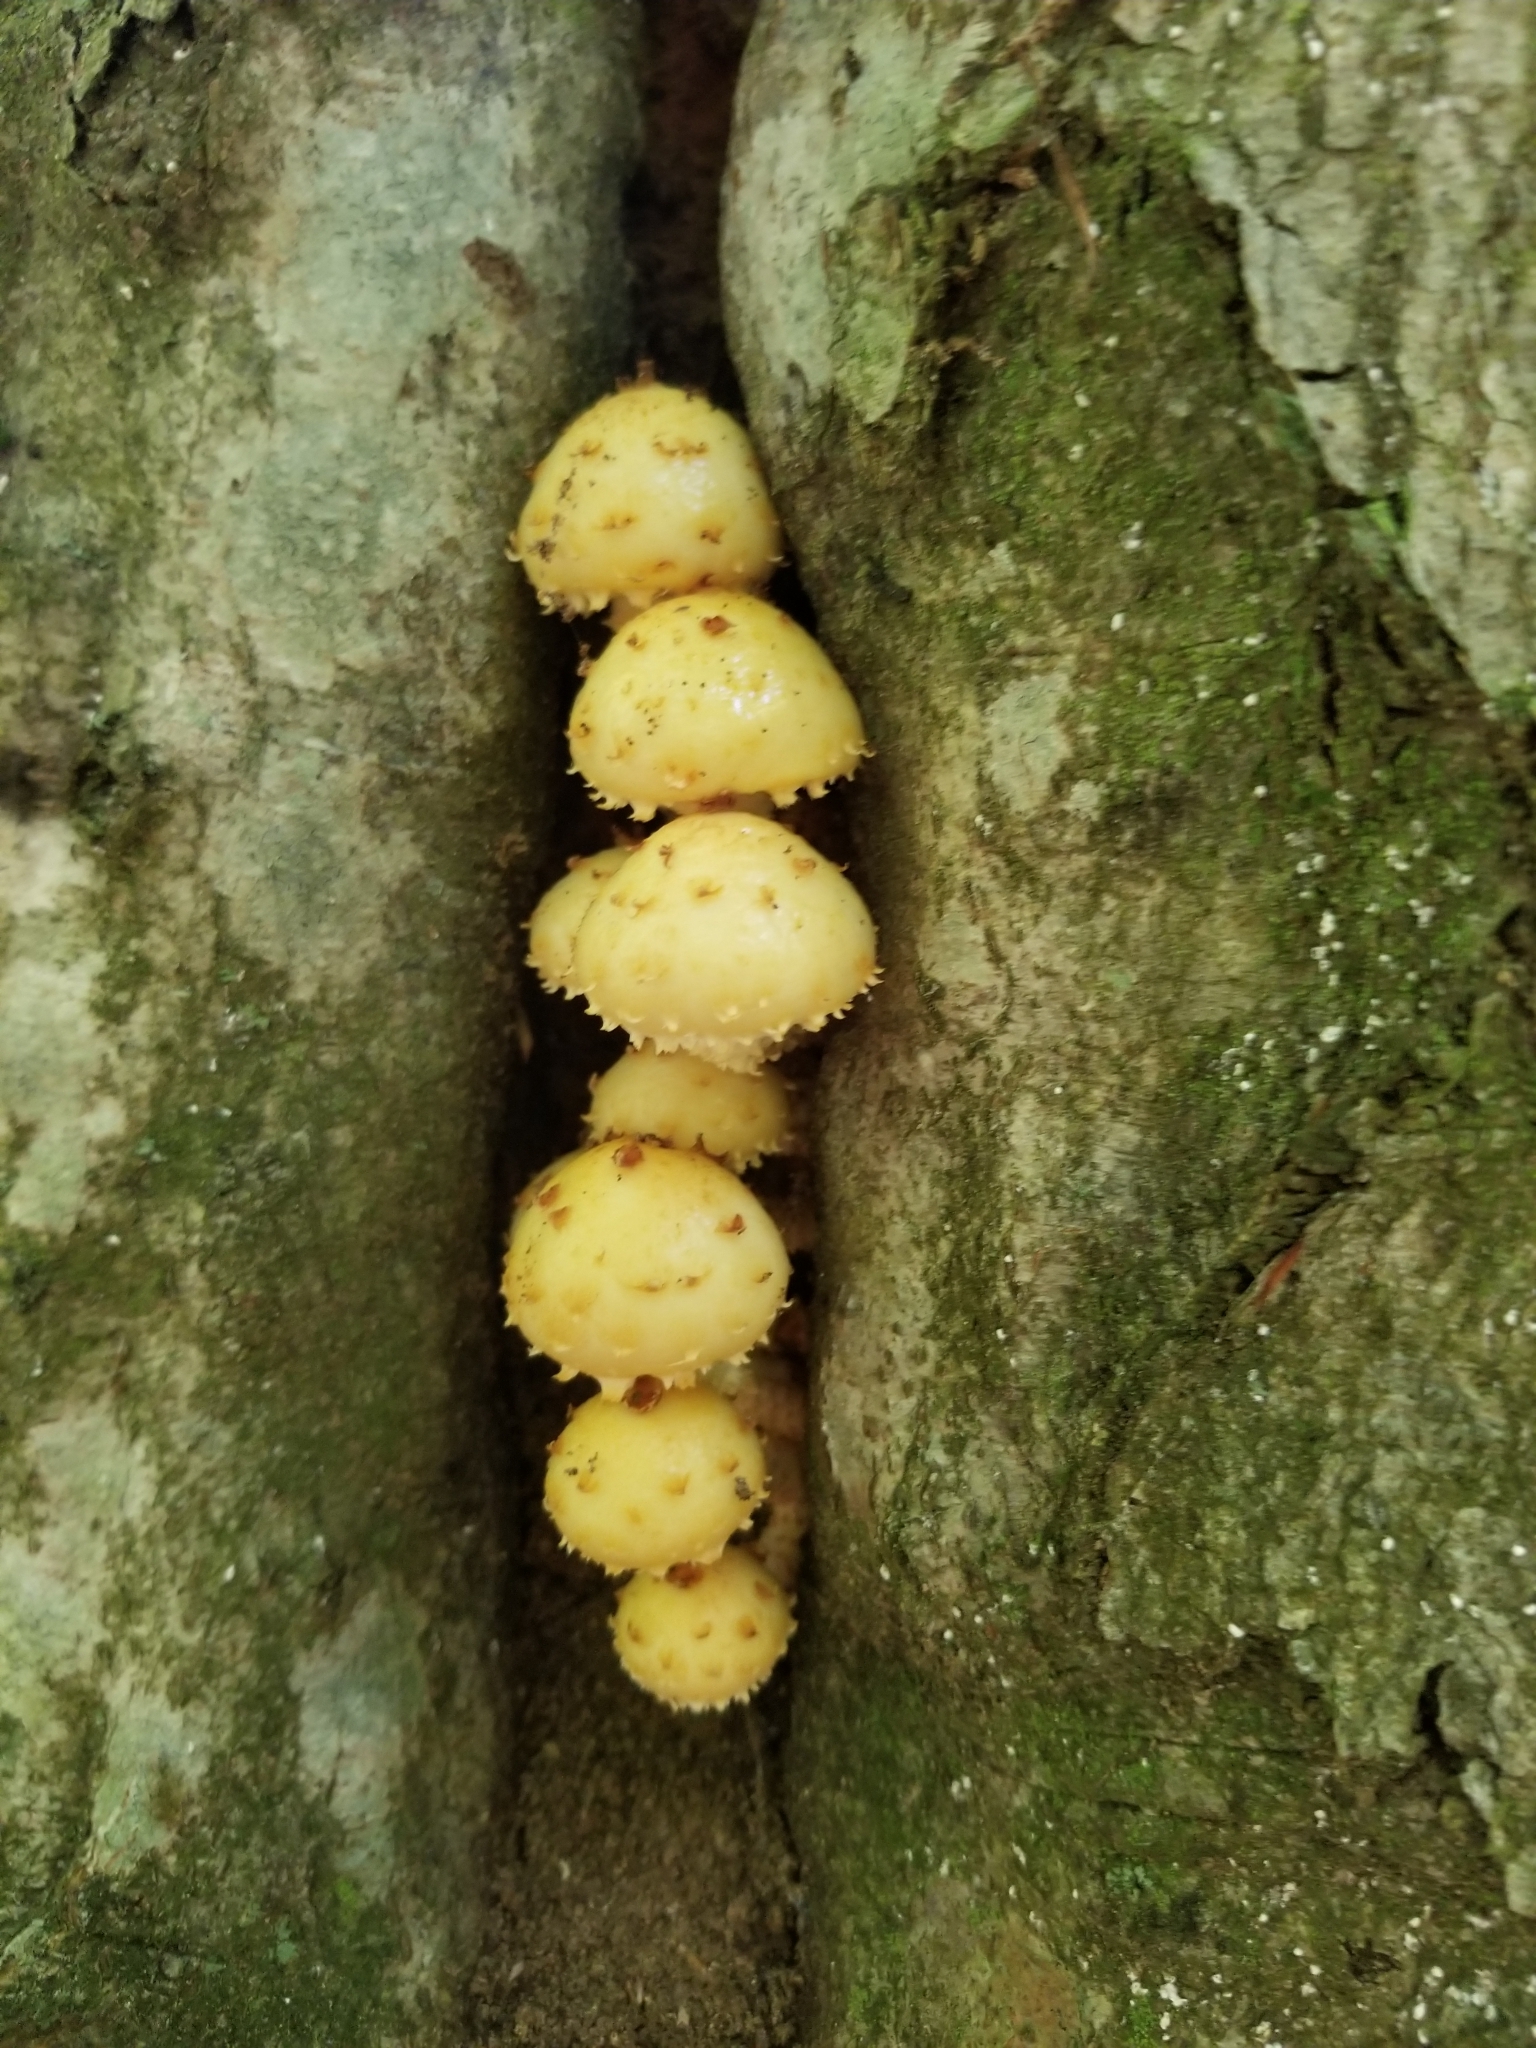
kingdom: Fungi
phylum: Basidiomycota
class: Agaricomycetes
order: Agaricales
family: Strophariaceae
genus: Pholiota
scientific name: Pholiota aurivella
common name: Golden scalycap
